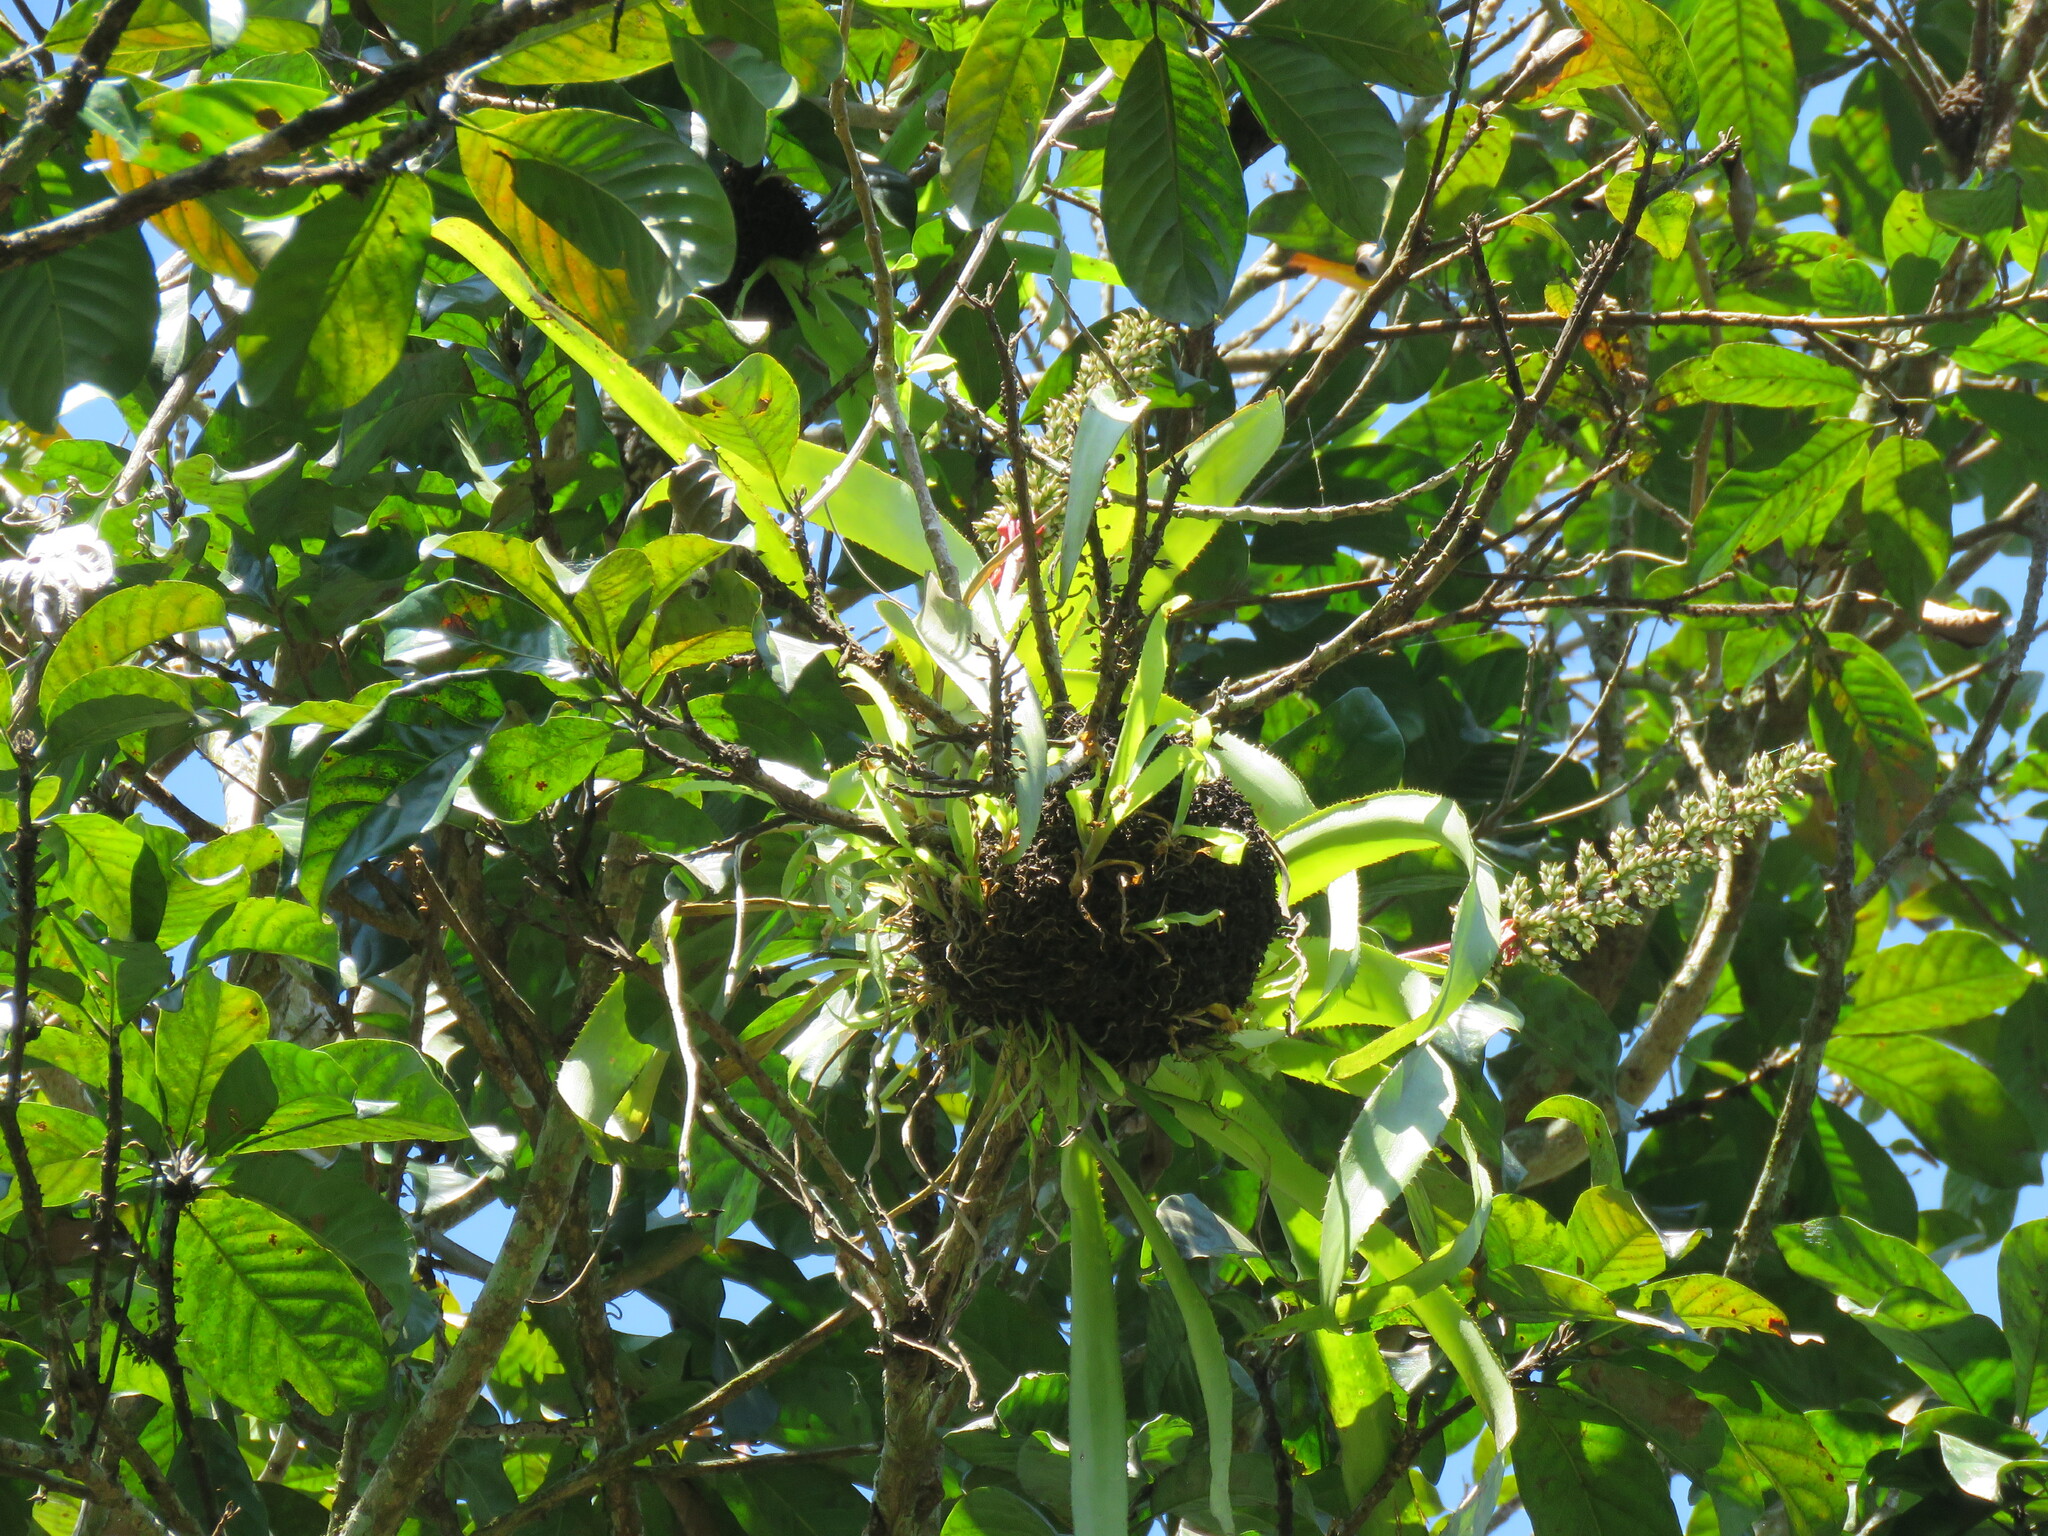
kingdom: Plantae
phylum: Tracheophyta
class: Liliopsida
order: Poales
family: Bromeliaceae
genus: Aechmea
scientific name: Aechmea angustifolia
